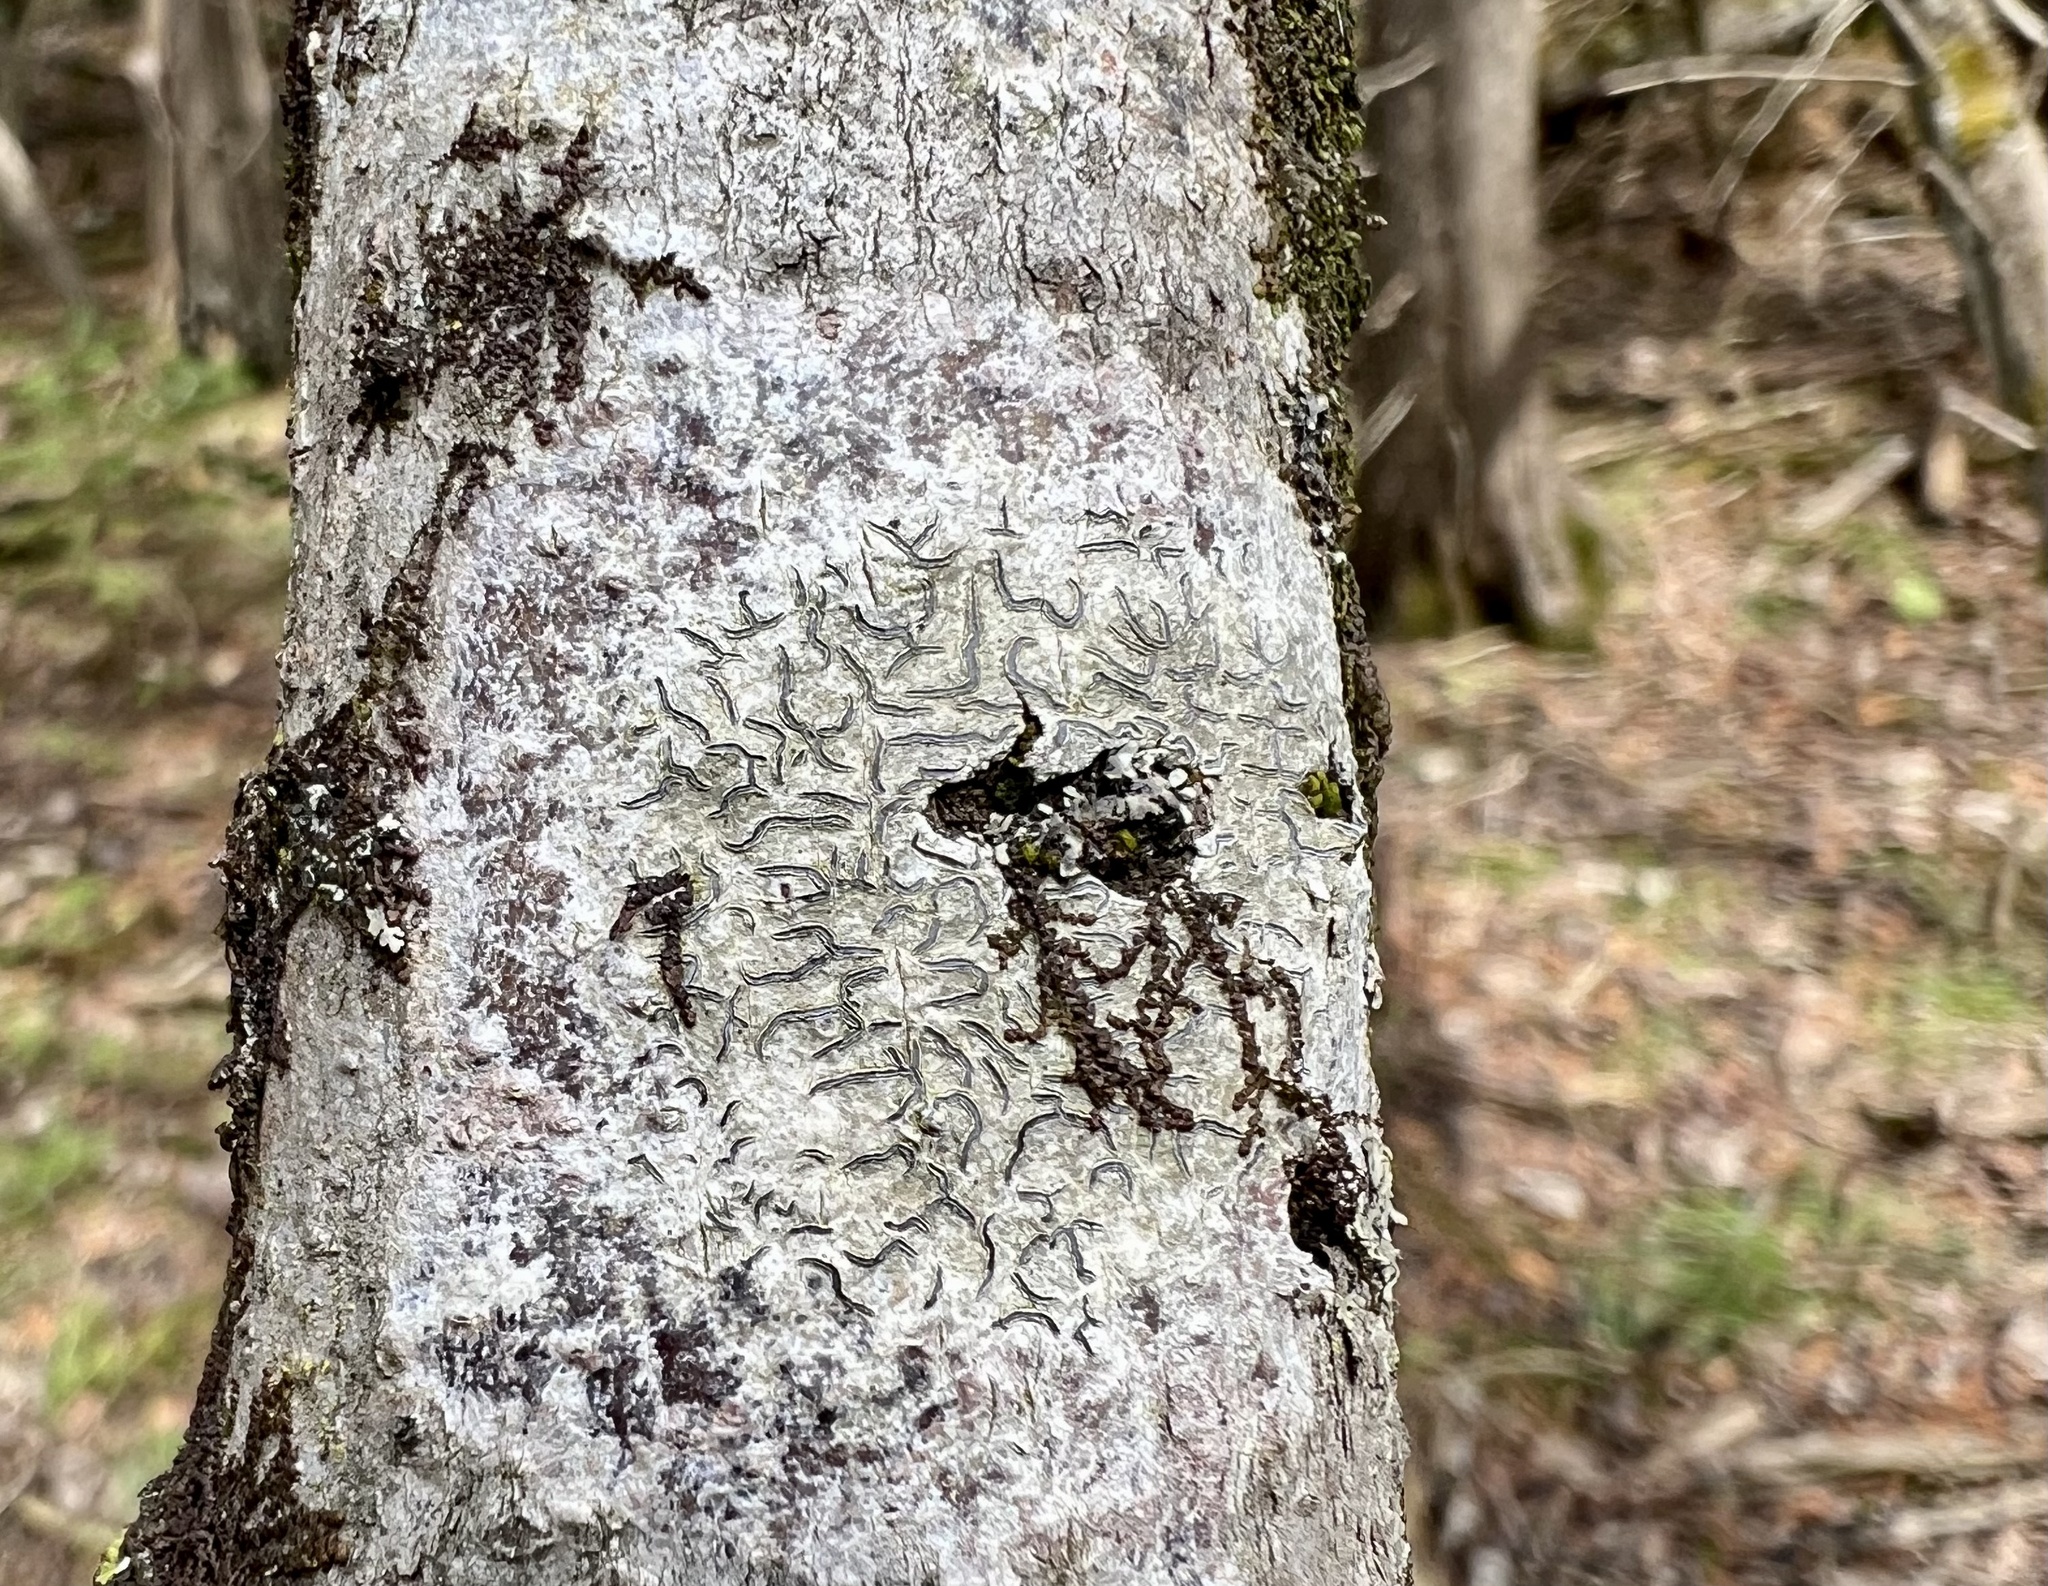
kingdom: Fungi
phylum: Ascomycota
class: Lecanoromycetes
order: Ostropales
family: Graphidaceae
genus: Graphis
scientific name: Graphis scripta
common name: Script lichen
